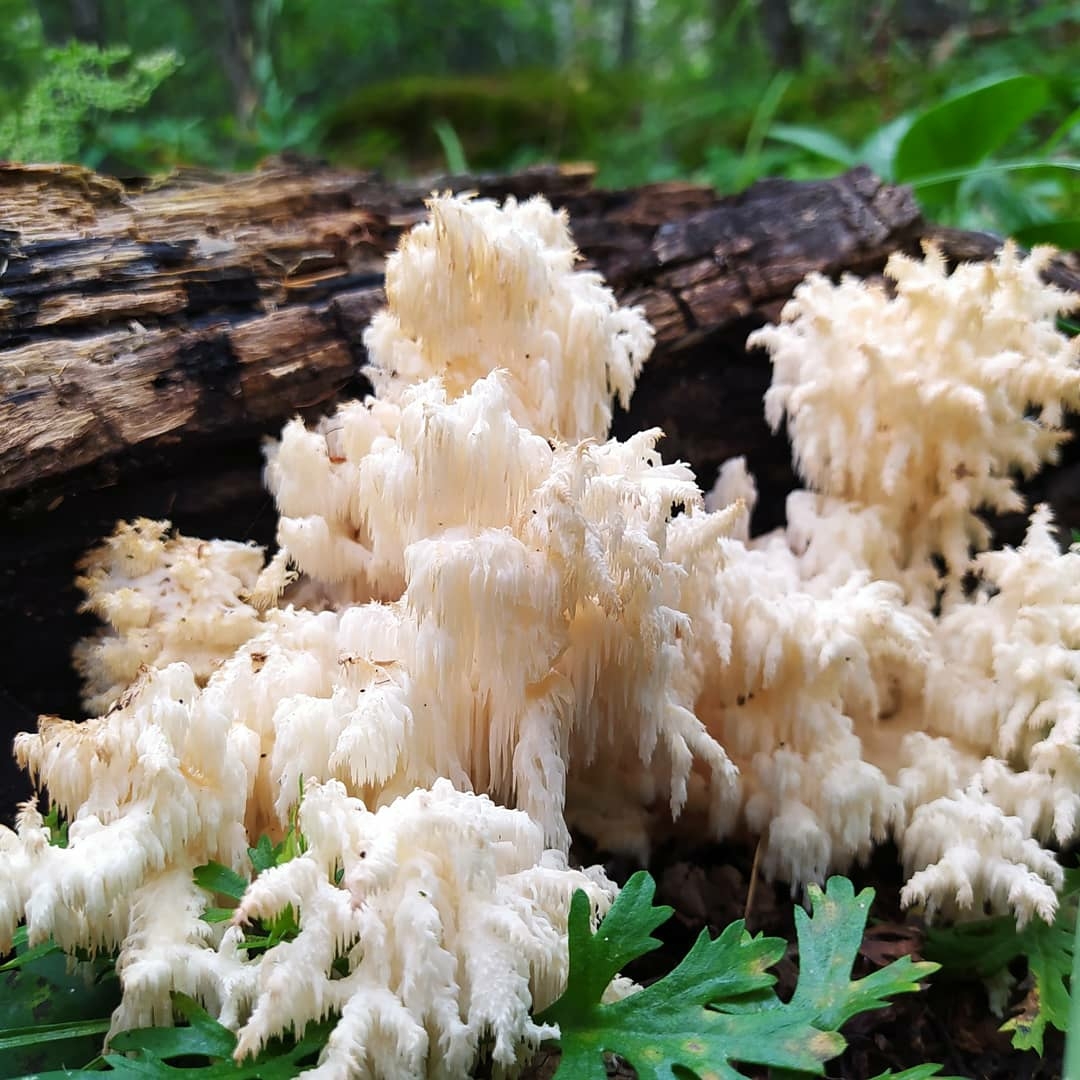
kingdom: Fungi
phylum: Basidiomycota
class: Agaricomycetes
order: Russulales
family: Hericiaceae
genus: Hericium
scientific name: Hericium coralloides
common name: Coral tooth
